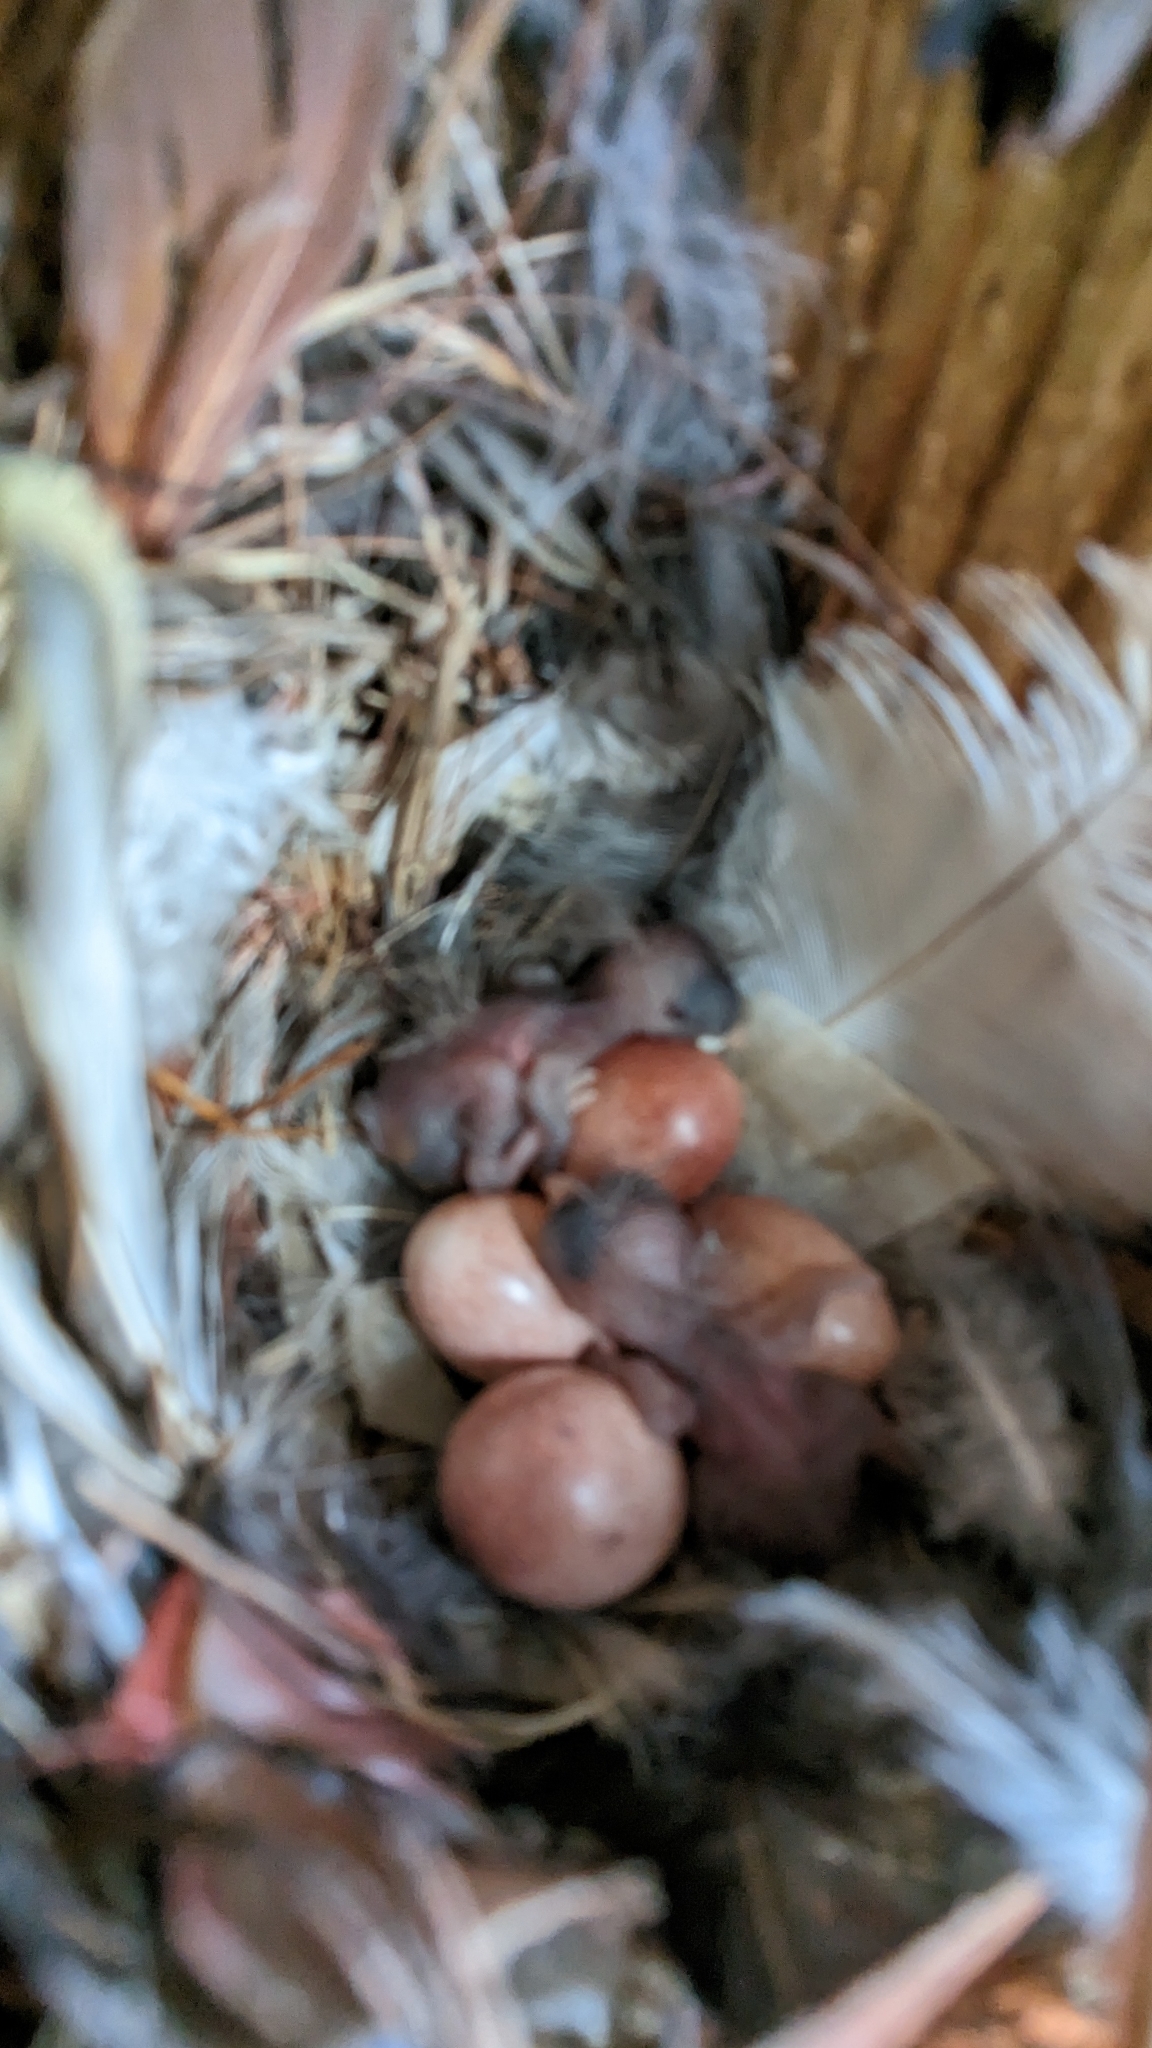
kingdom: Animalia
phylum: Chordata
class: Aves
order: Passeriformes
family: Troglodytidae
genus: Troglodytes
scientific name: Troglodytes aedon
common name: House wren
